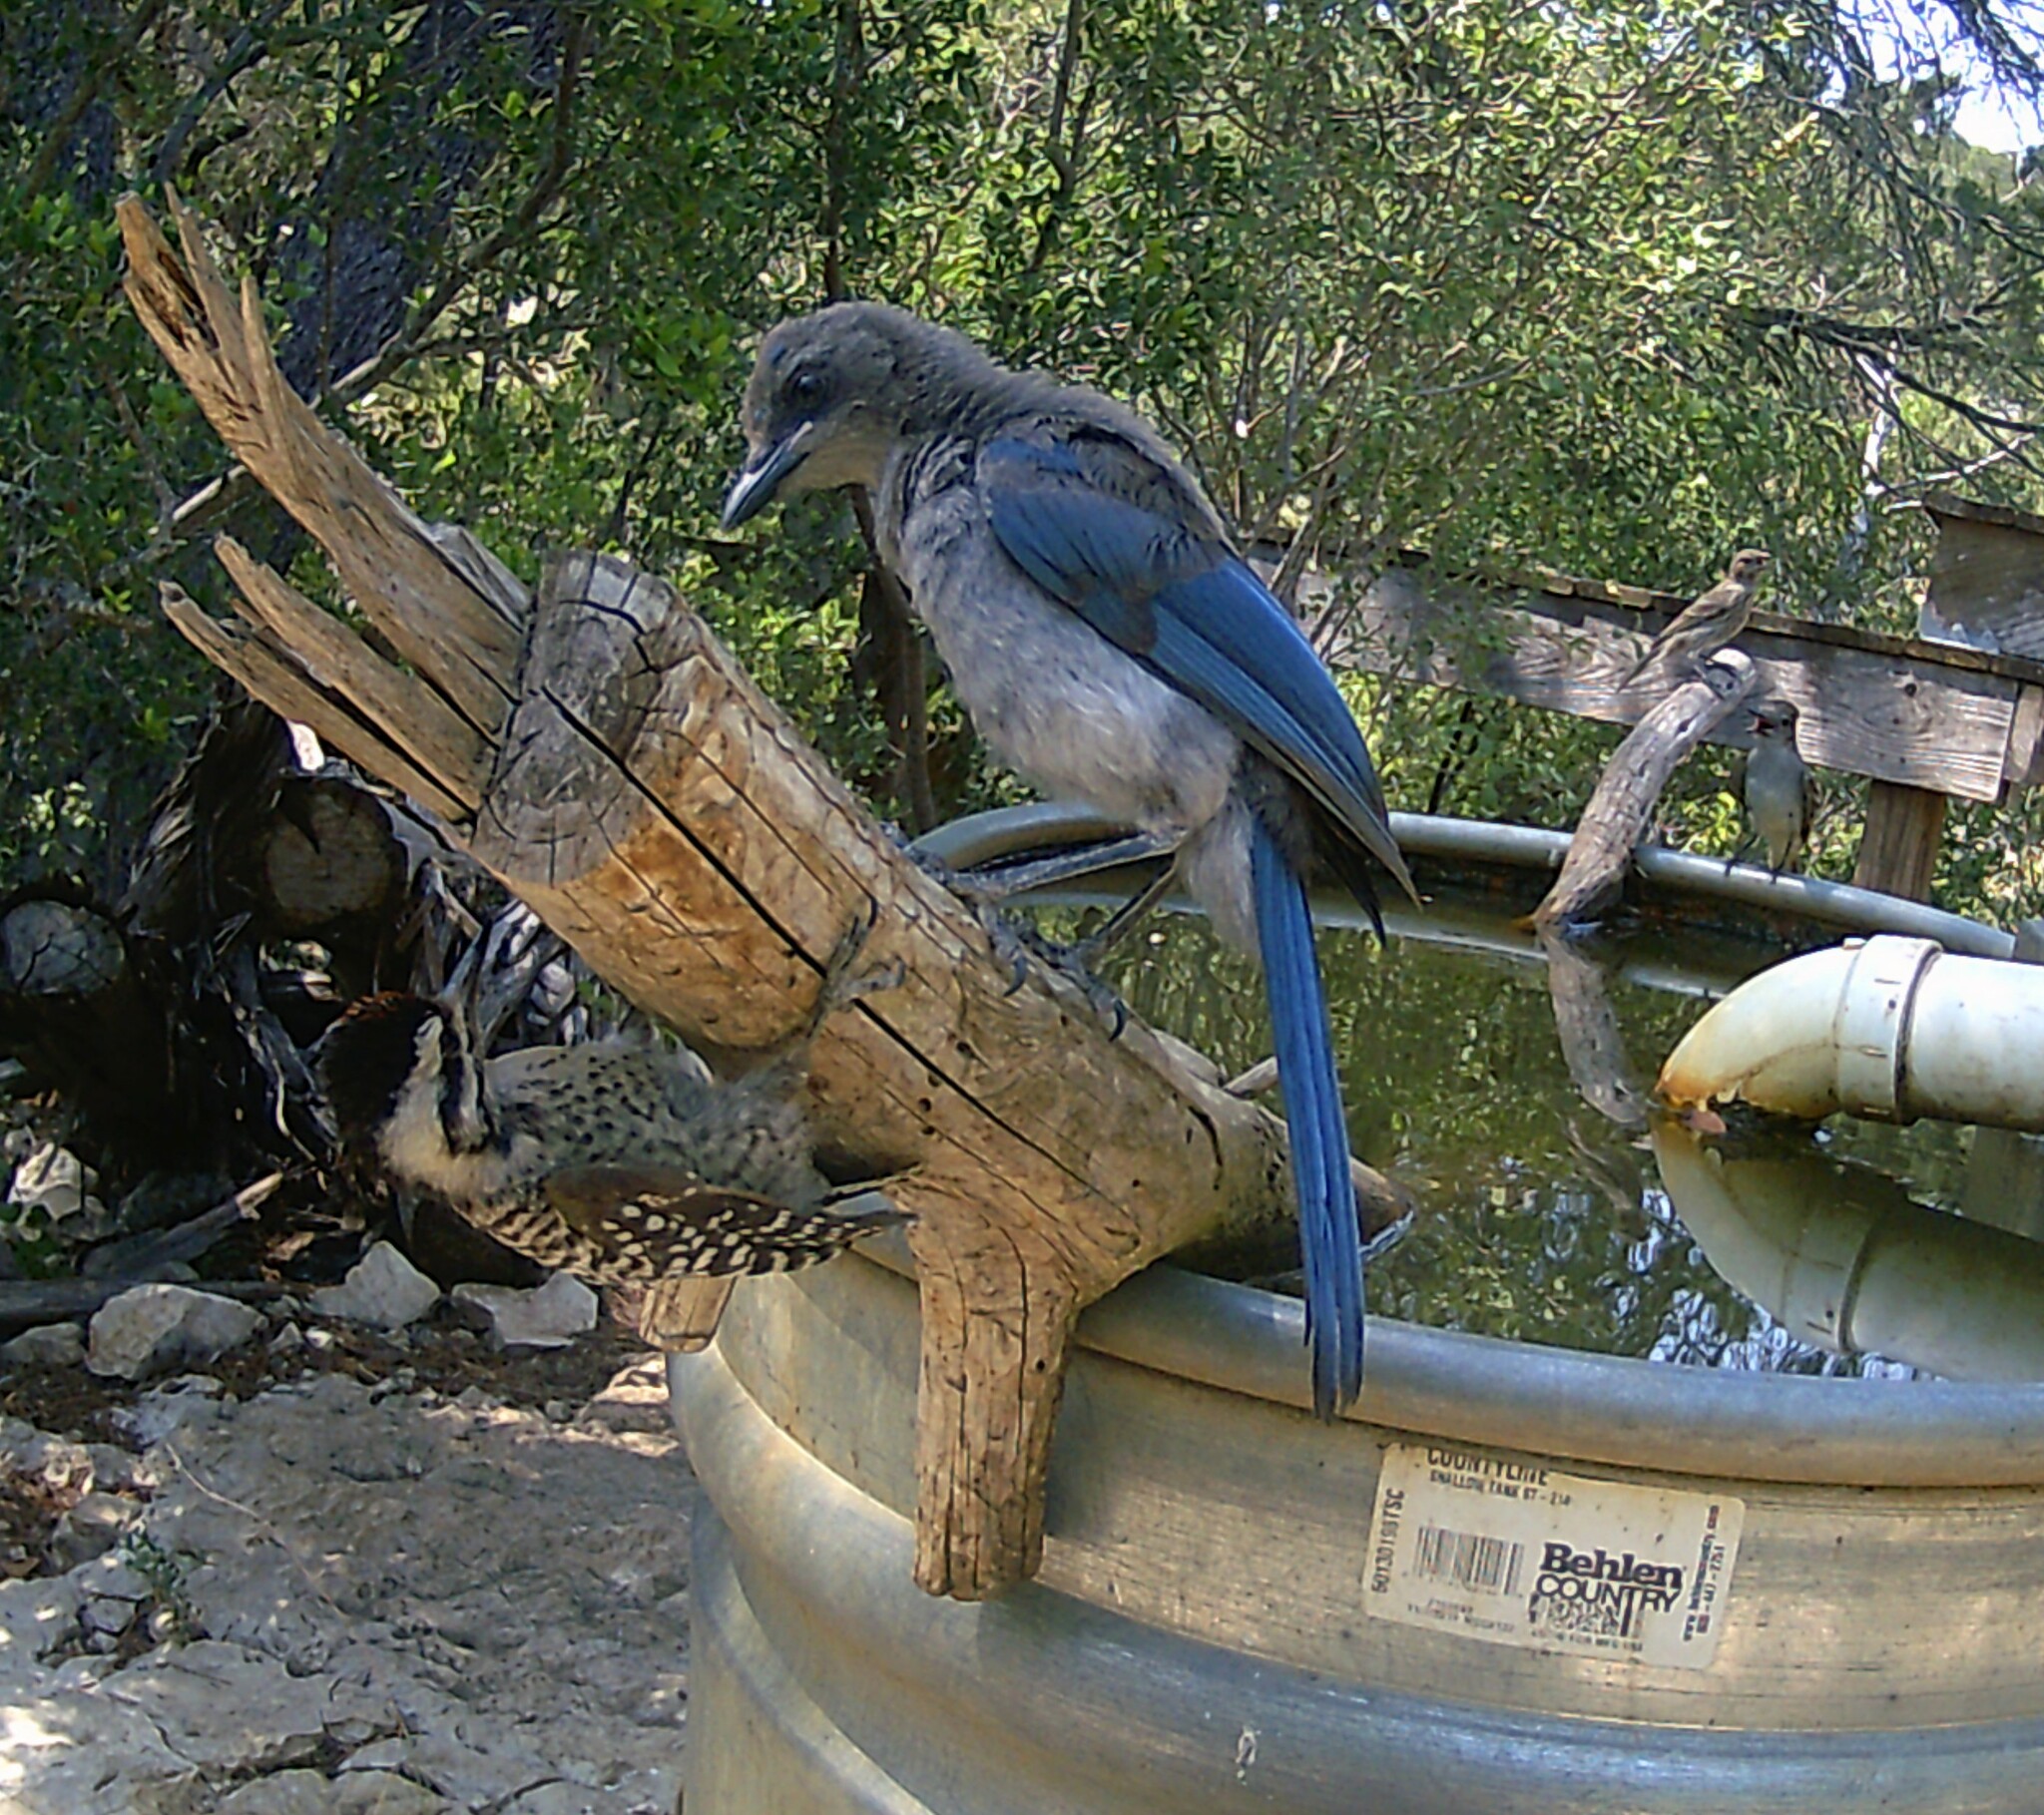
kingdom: Animalia
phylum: Chordata
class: Aves
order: Piciformes
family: Picidae
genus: Dryobates
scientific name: Dryobates scalaris
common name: Ladder-backed woodpecker
